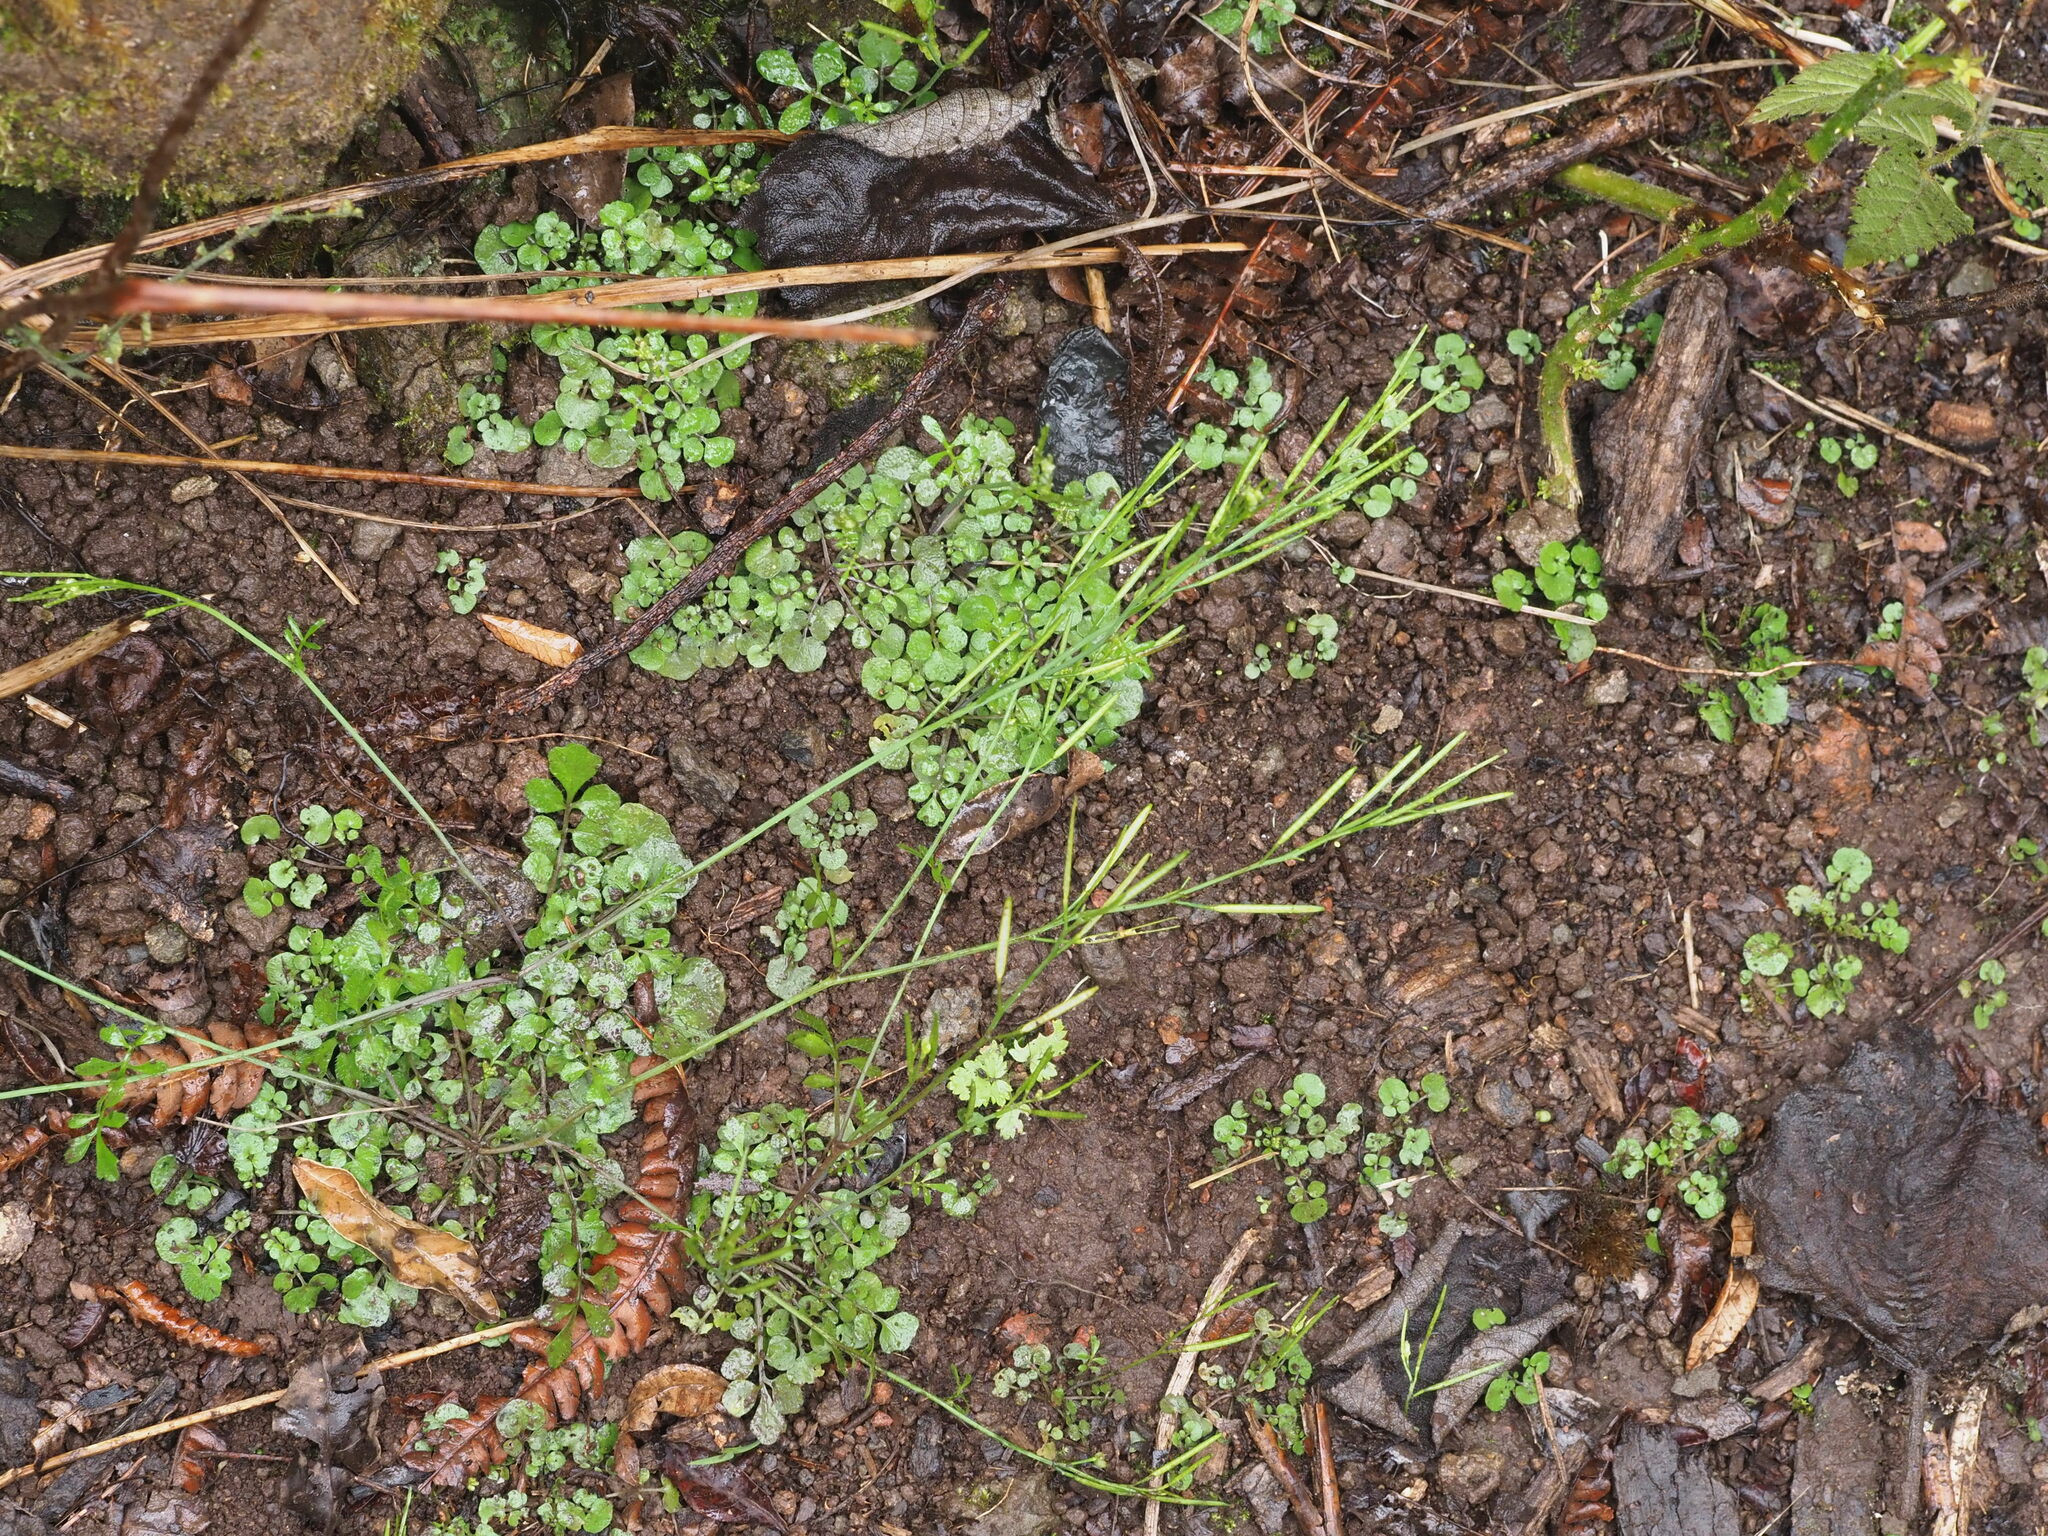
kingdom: Plantae
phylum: Tracheophyta
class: Magnoliopsida
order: Brassicales
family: Brassicaceae
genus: Cardamine
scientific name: Cardamine hirsuta
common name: Hairy bittercress
